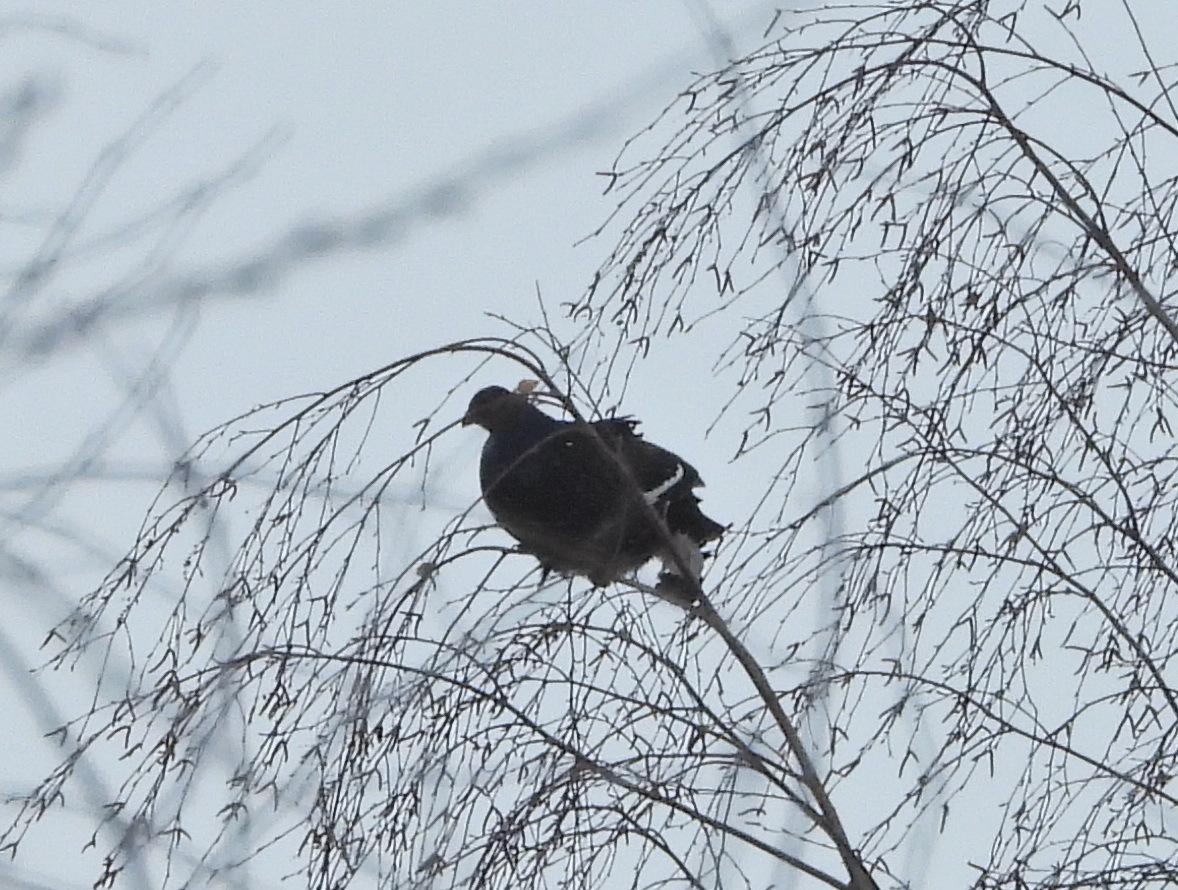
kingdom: Animalia
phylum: Chordata
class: Aves
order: Galliformes
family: Phasianidae
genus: Lyrurus
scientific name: Lyrurus tetrix
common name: Black grouse
